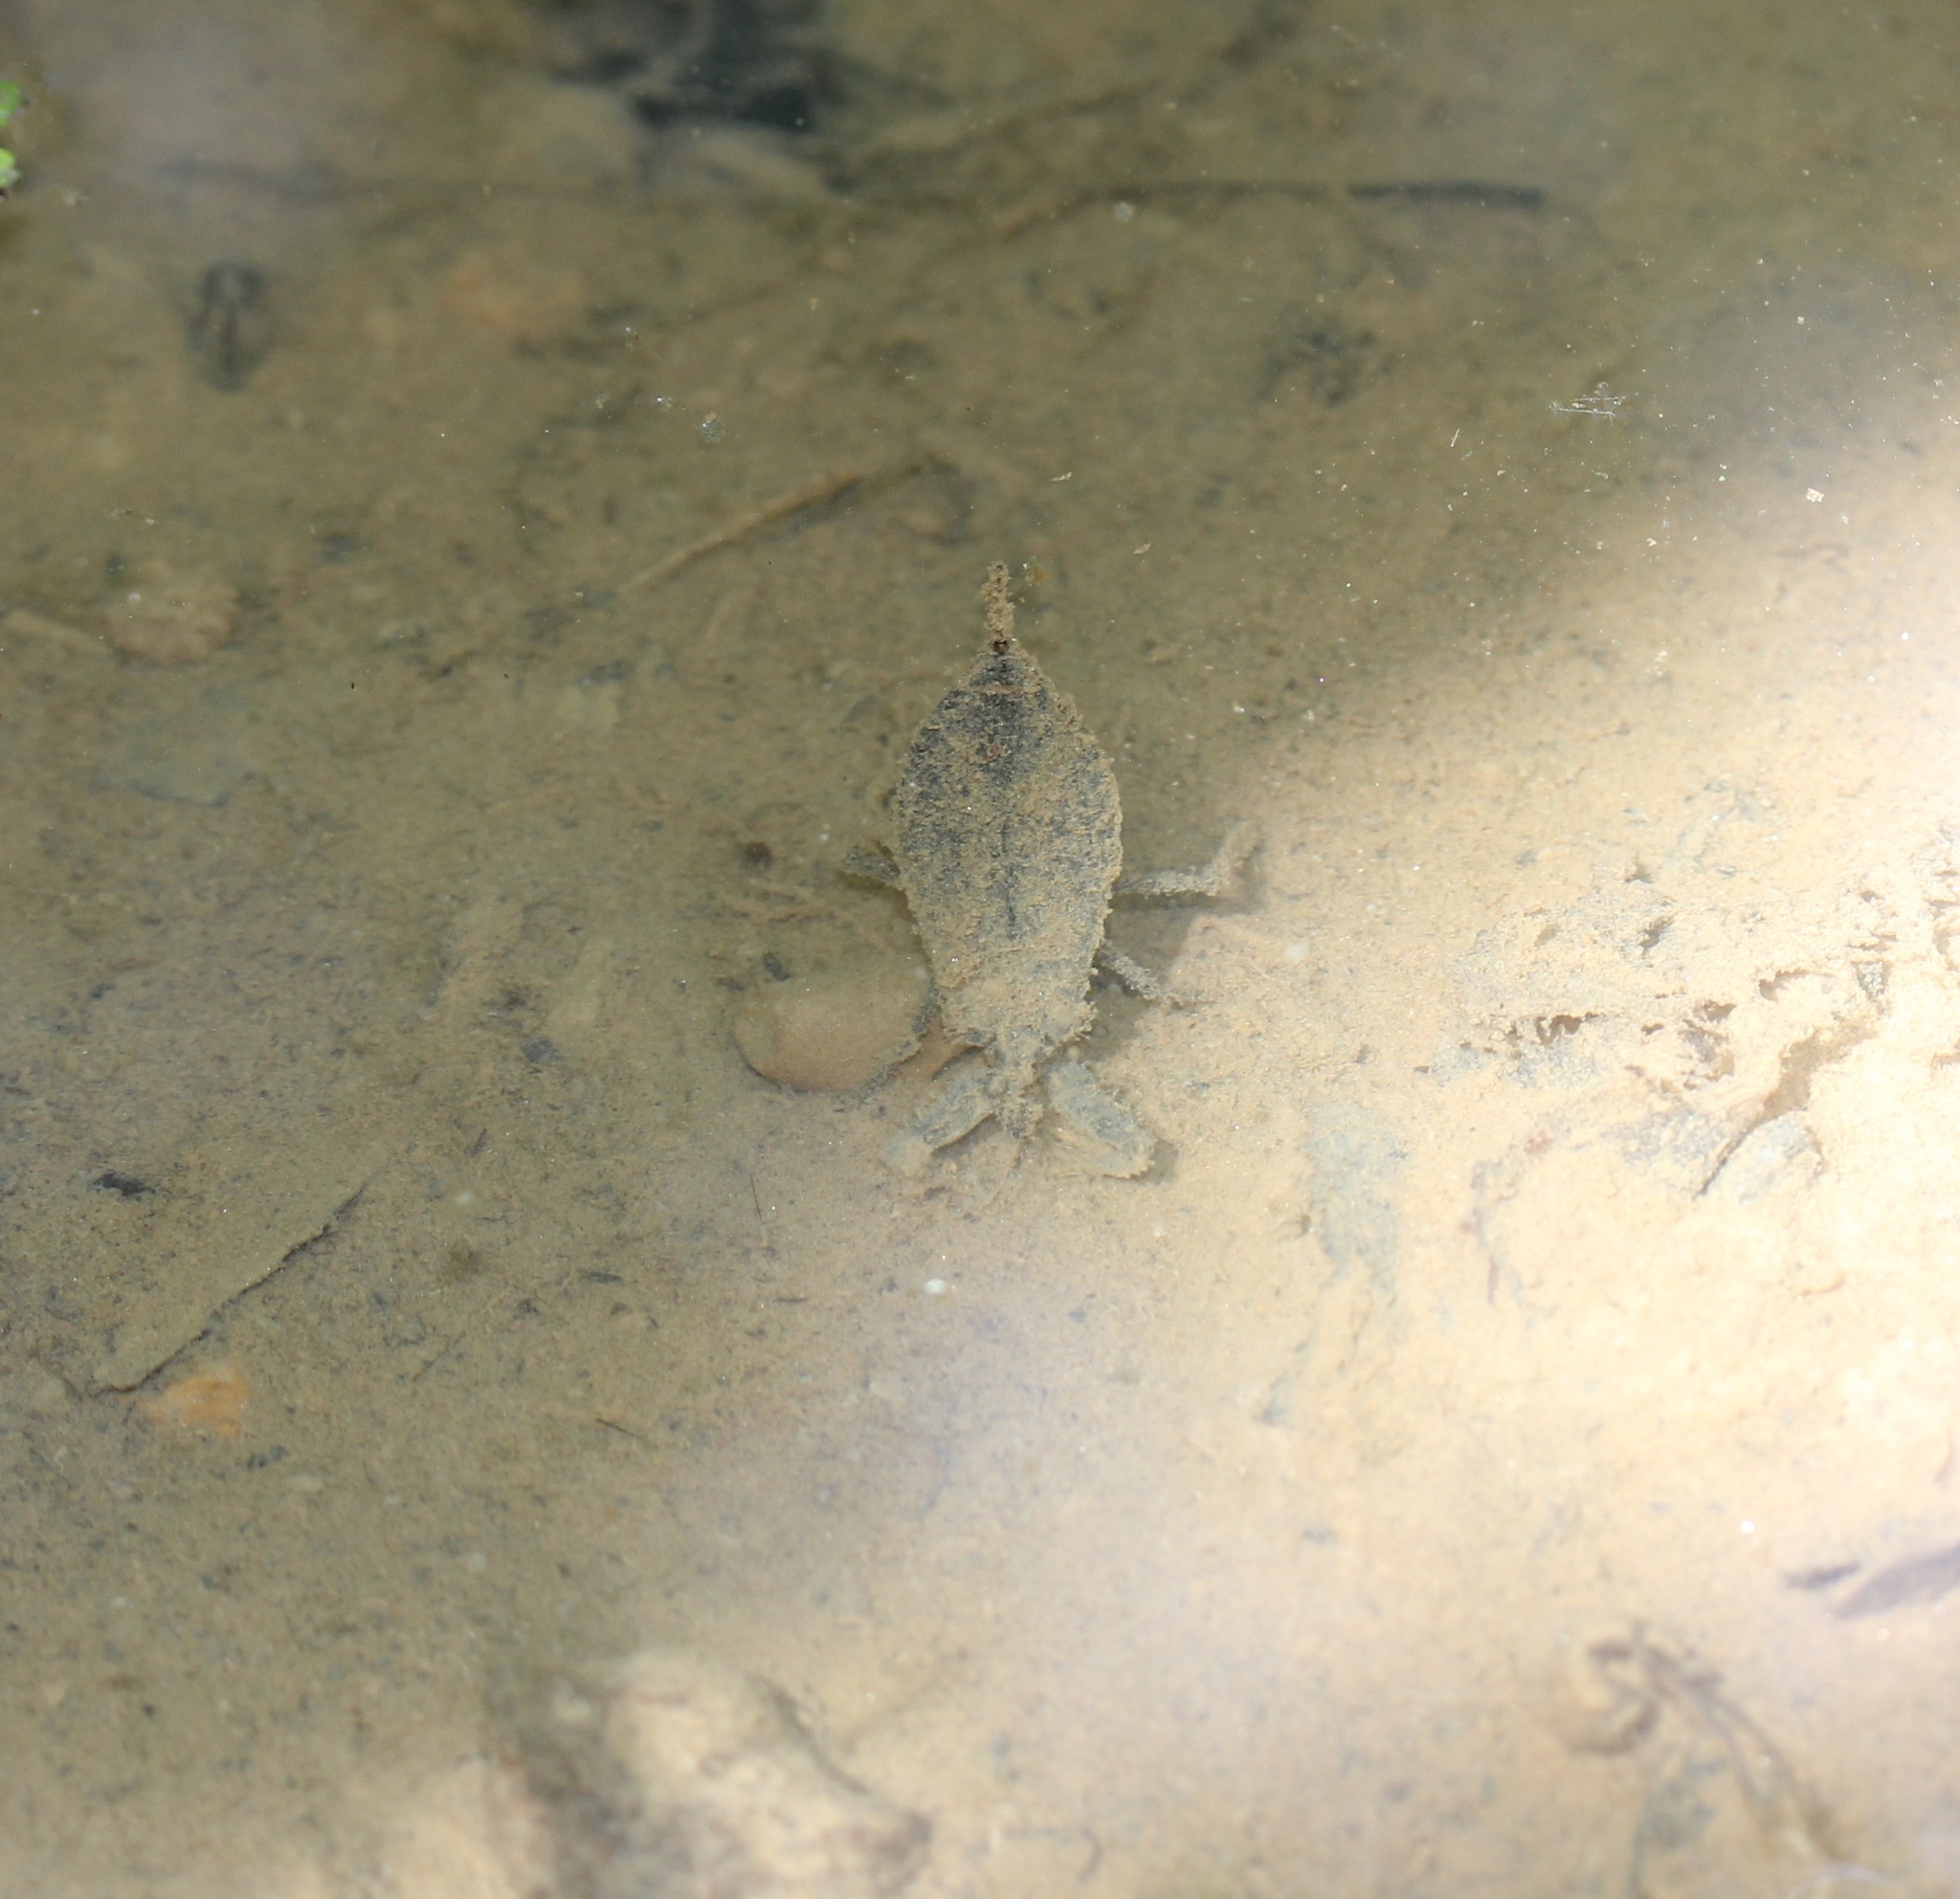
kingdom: Animalia
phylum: Arthropoda
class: Insecta
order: Hemiptera
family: Nepidae
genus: Nepa
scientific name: Nepa apiculata
